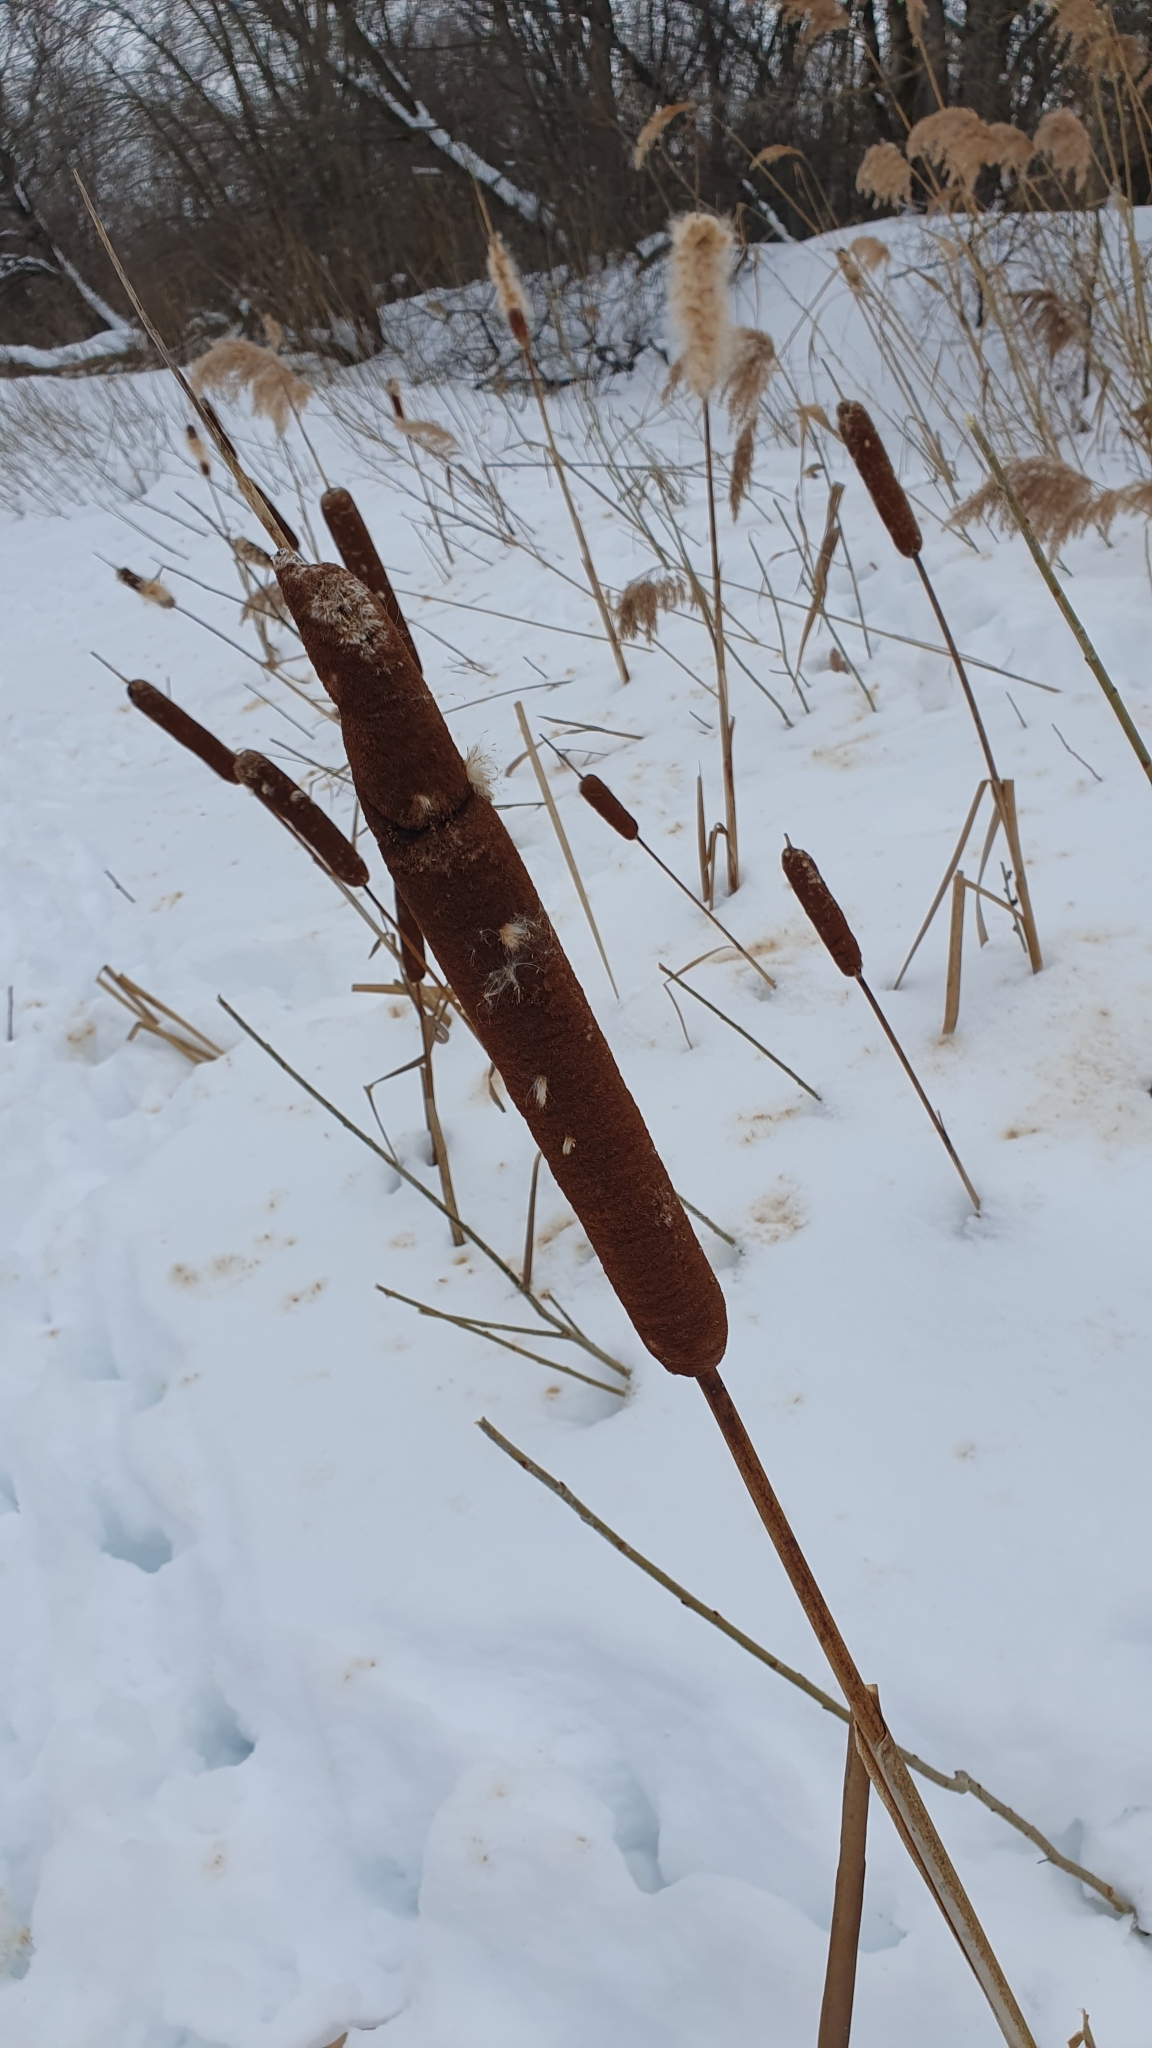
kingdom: Plantae
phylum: Tracheophyta
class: Liliopsida
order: Poales
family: Typhaceae
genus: Typha
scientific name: Typha latifolia
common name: Broadleaf cattail
